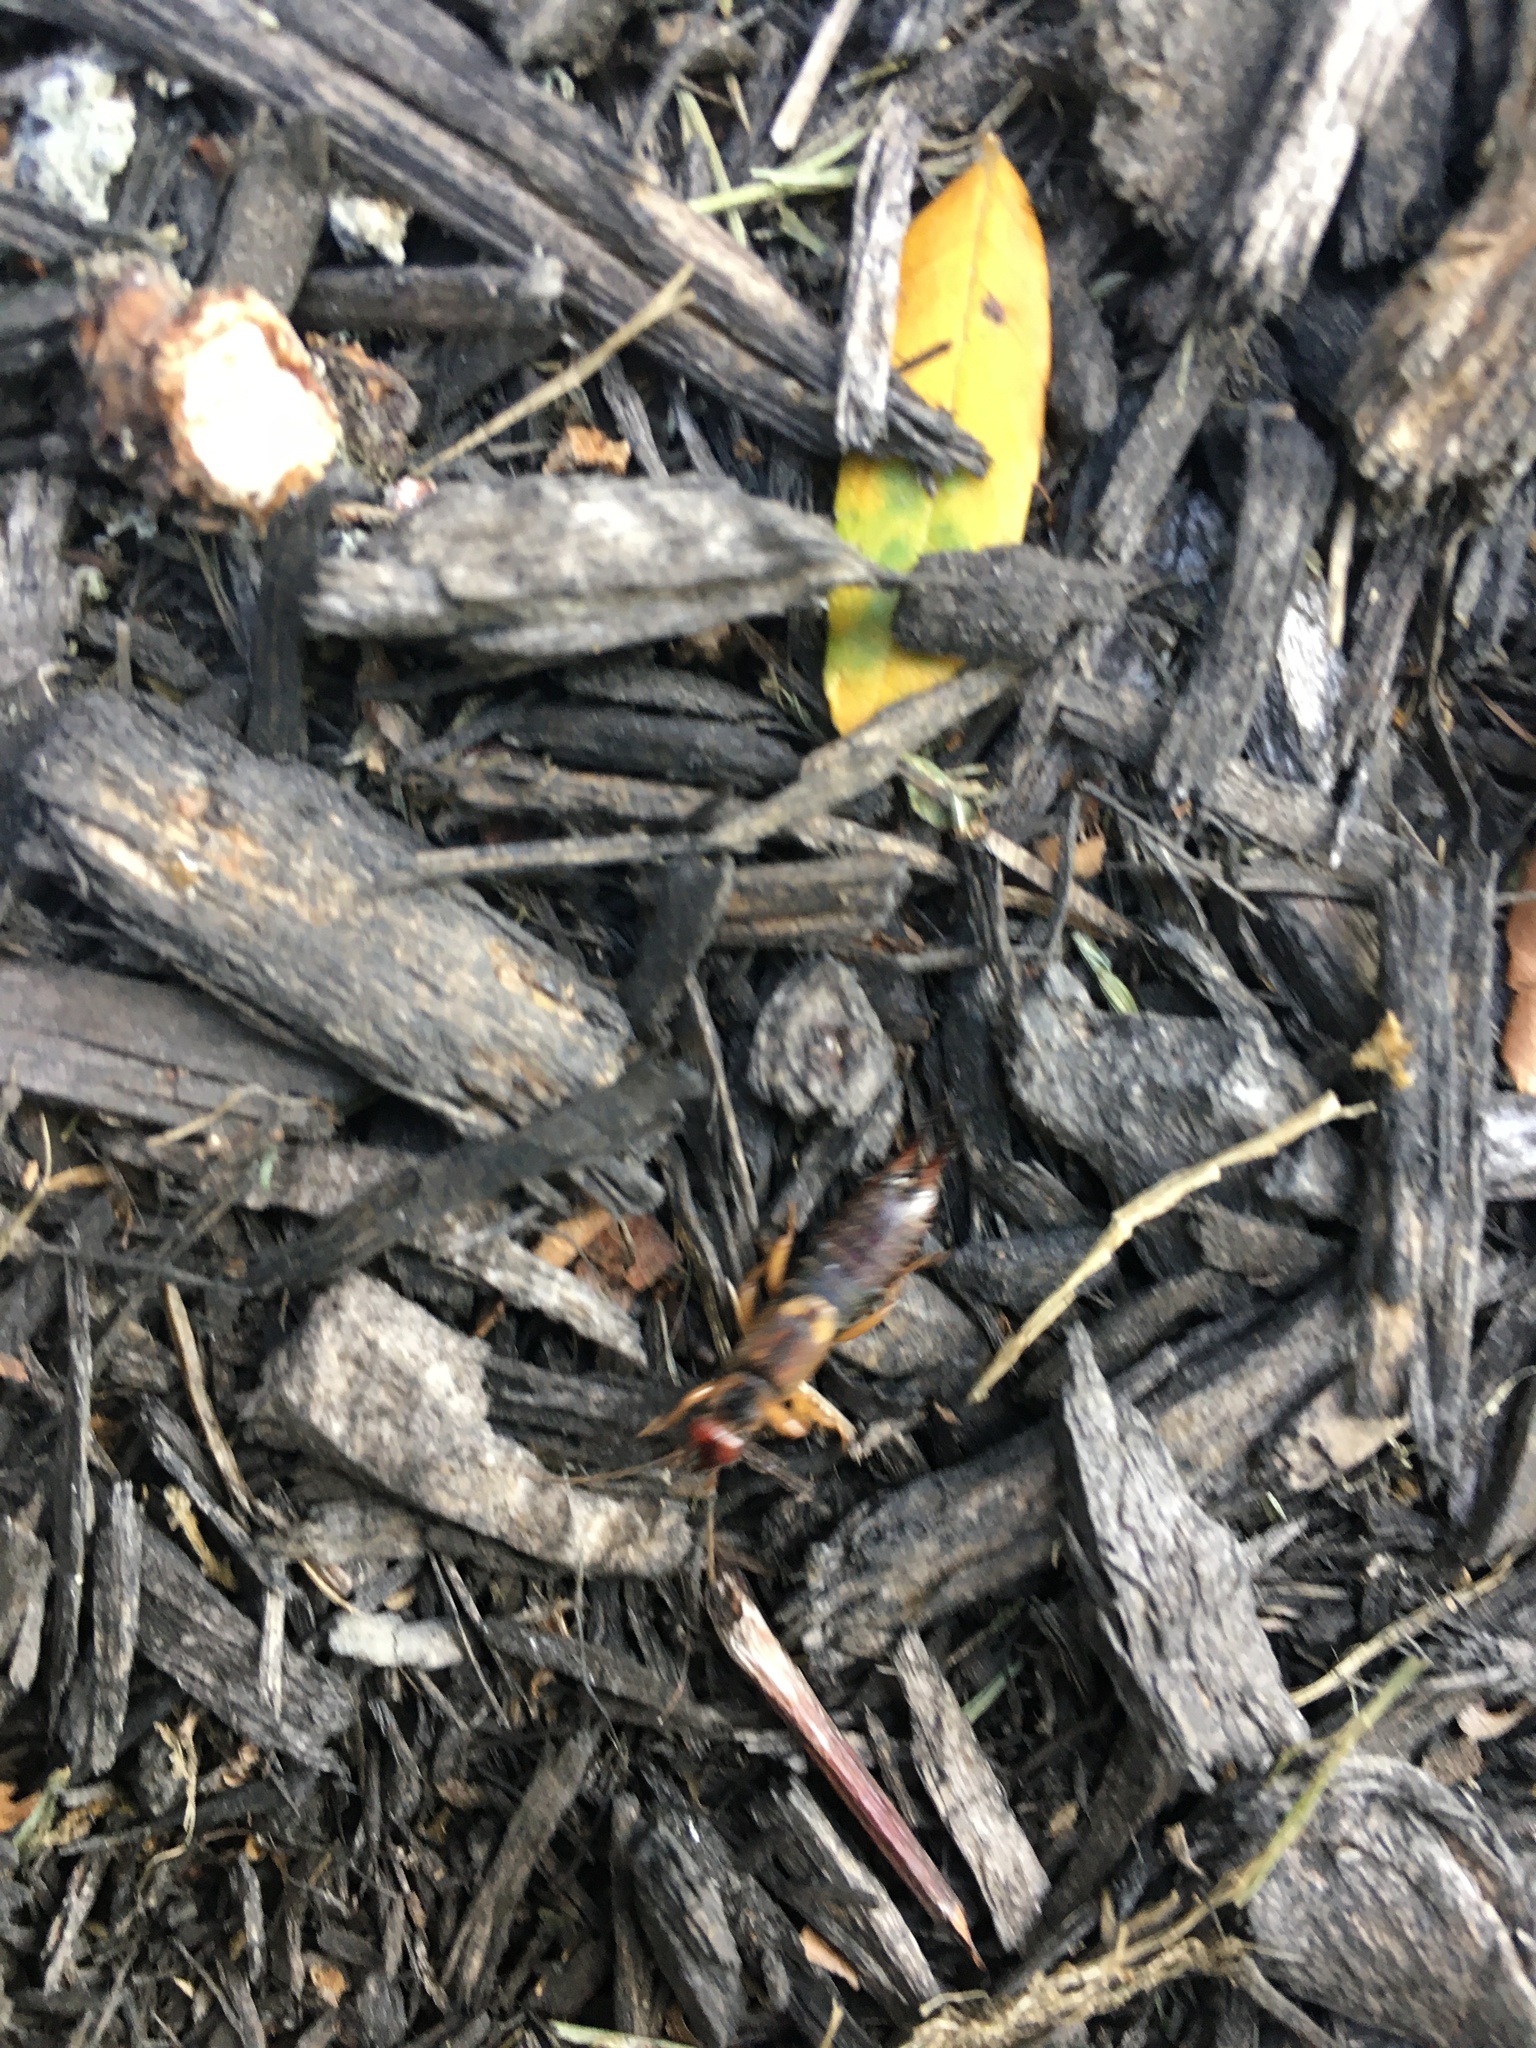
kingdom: Animalia
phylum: Arthropoda
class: Insecta
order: Dermaptera
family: Forficulidae
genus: Forficula
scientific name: Forficula
